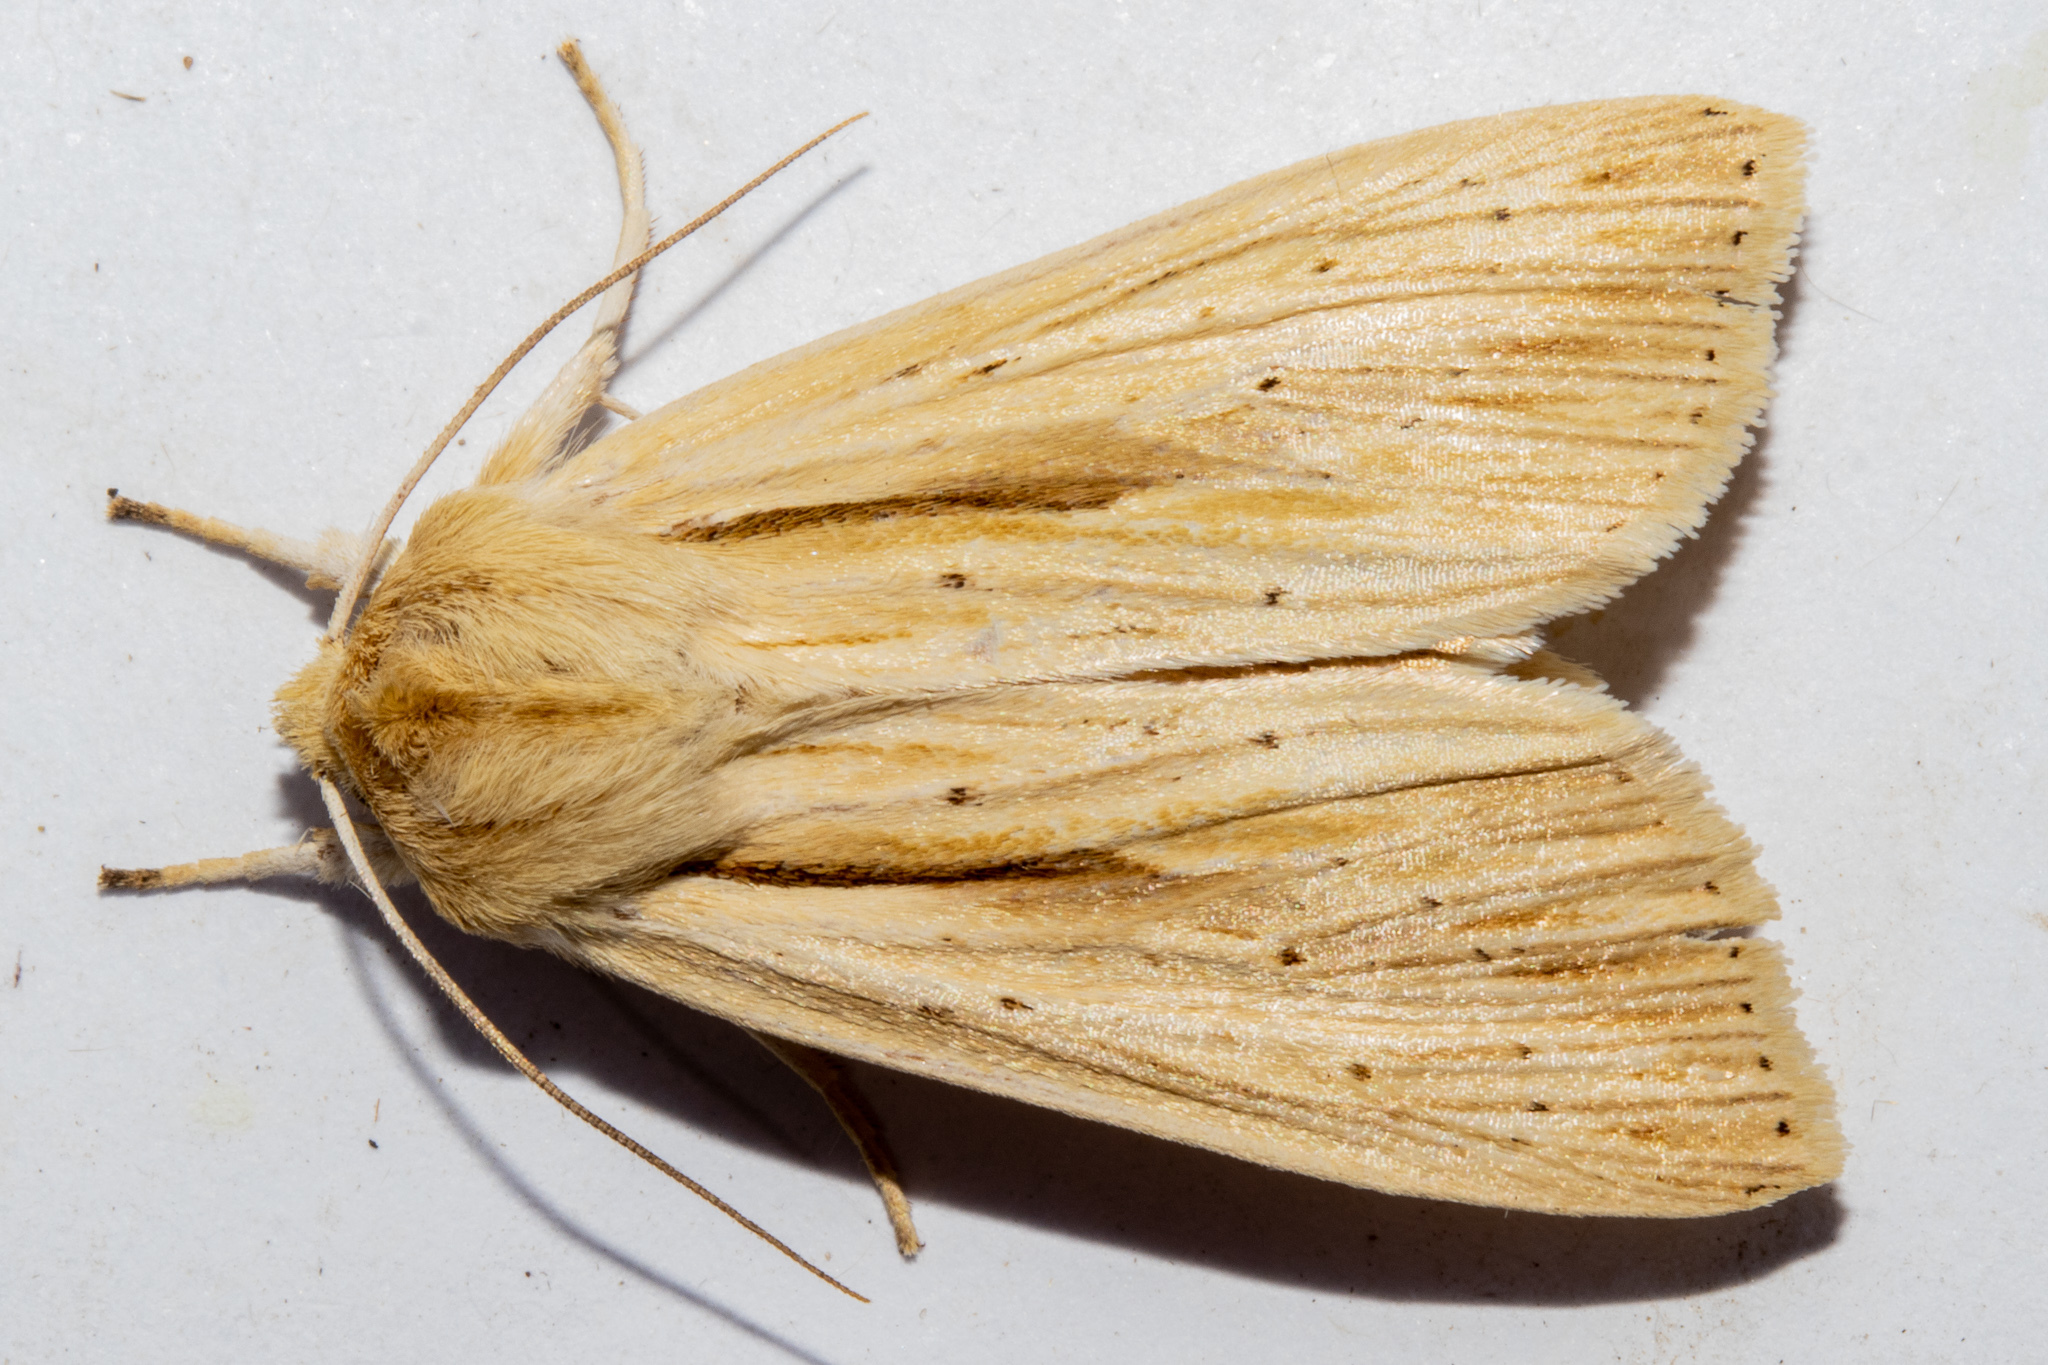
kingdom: Animalia
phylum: Arthropoda
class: Insecta
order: Lepidoptera
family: Noctuidae
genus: Ichneutica
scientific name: Ichneutica semivittata
